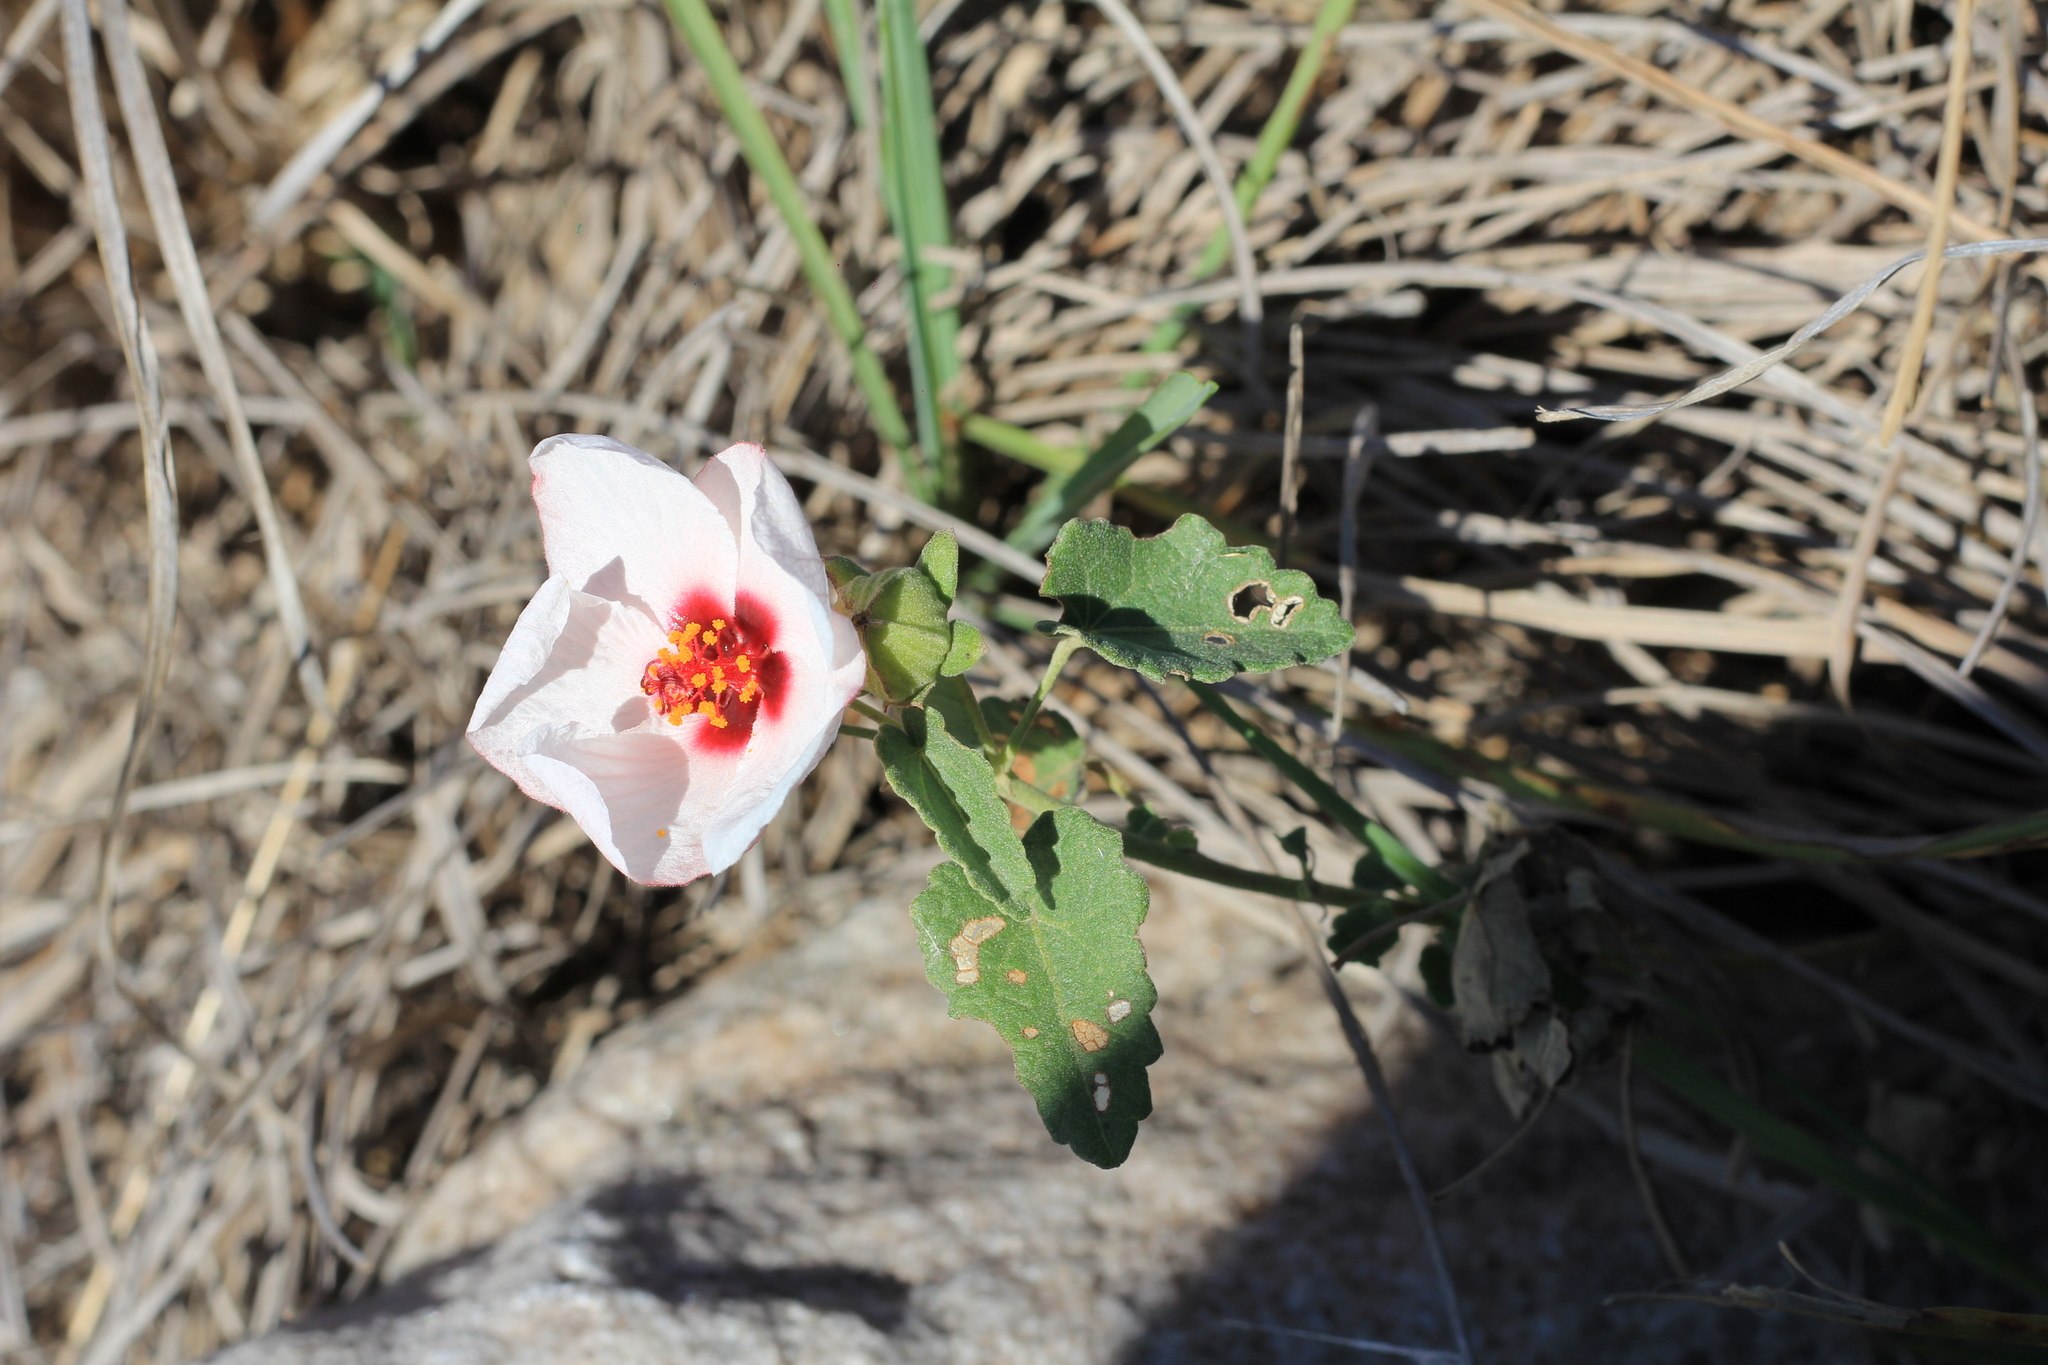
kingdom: Plantae
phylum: Tracheophyta
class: Magnoliopsida
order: Malvales
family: Malvaceae
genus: Pavonia
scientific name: Pavonia cymbalaria
